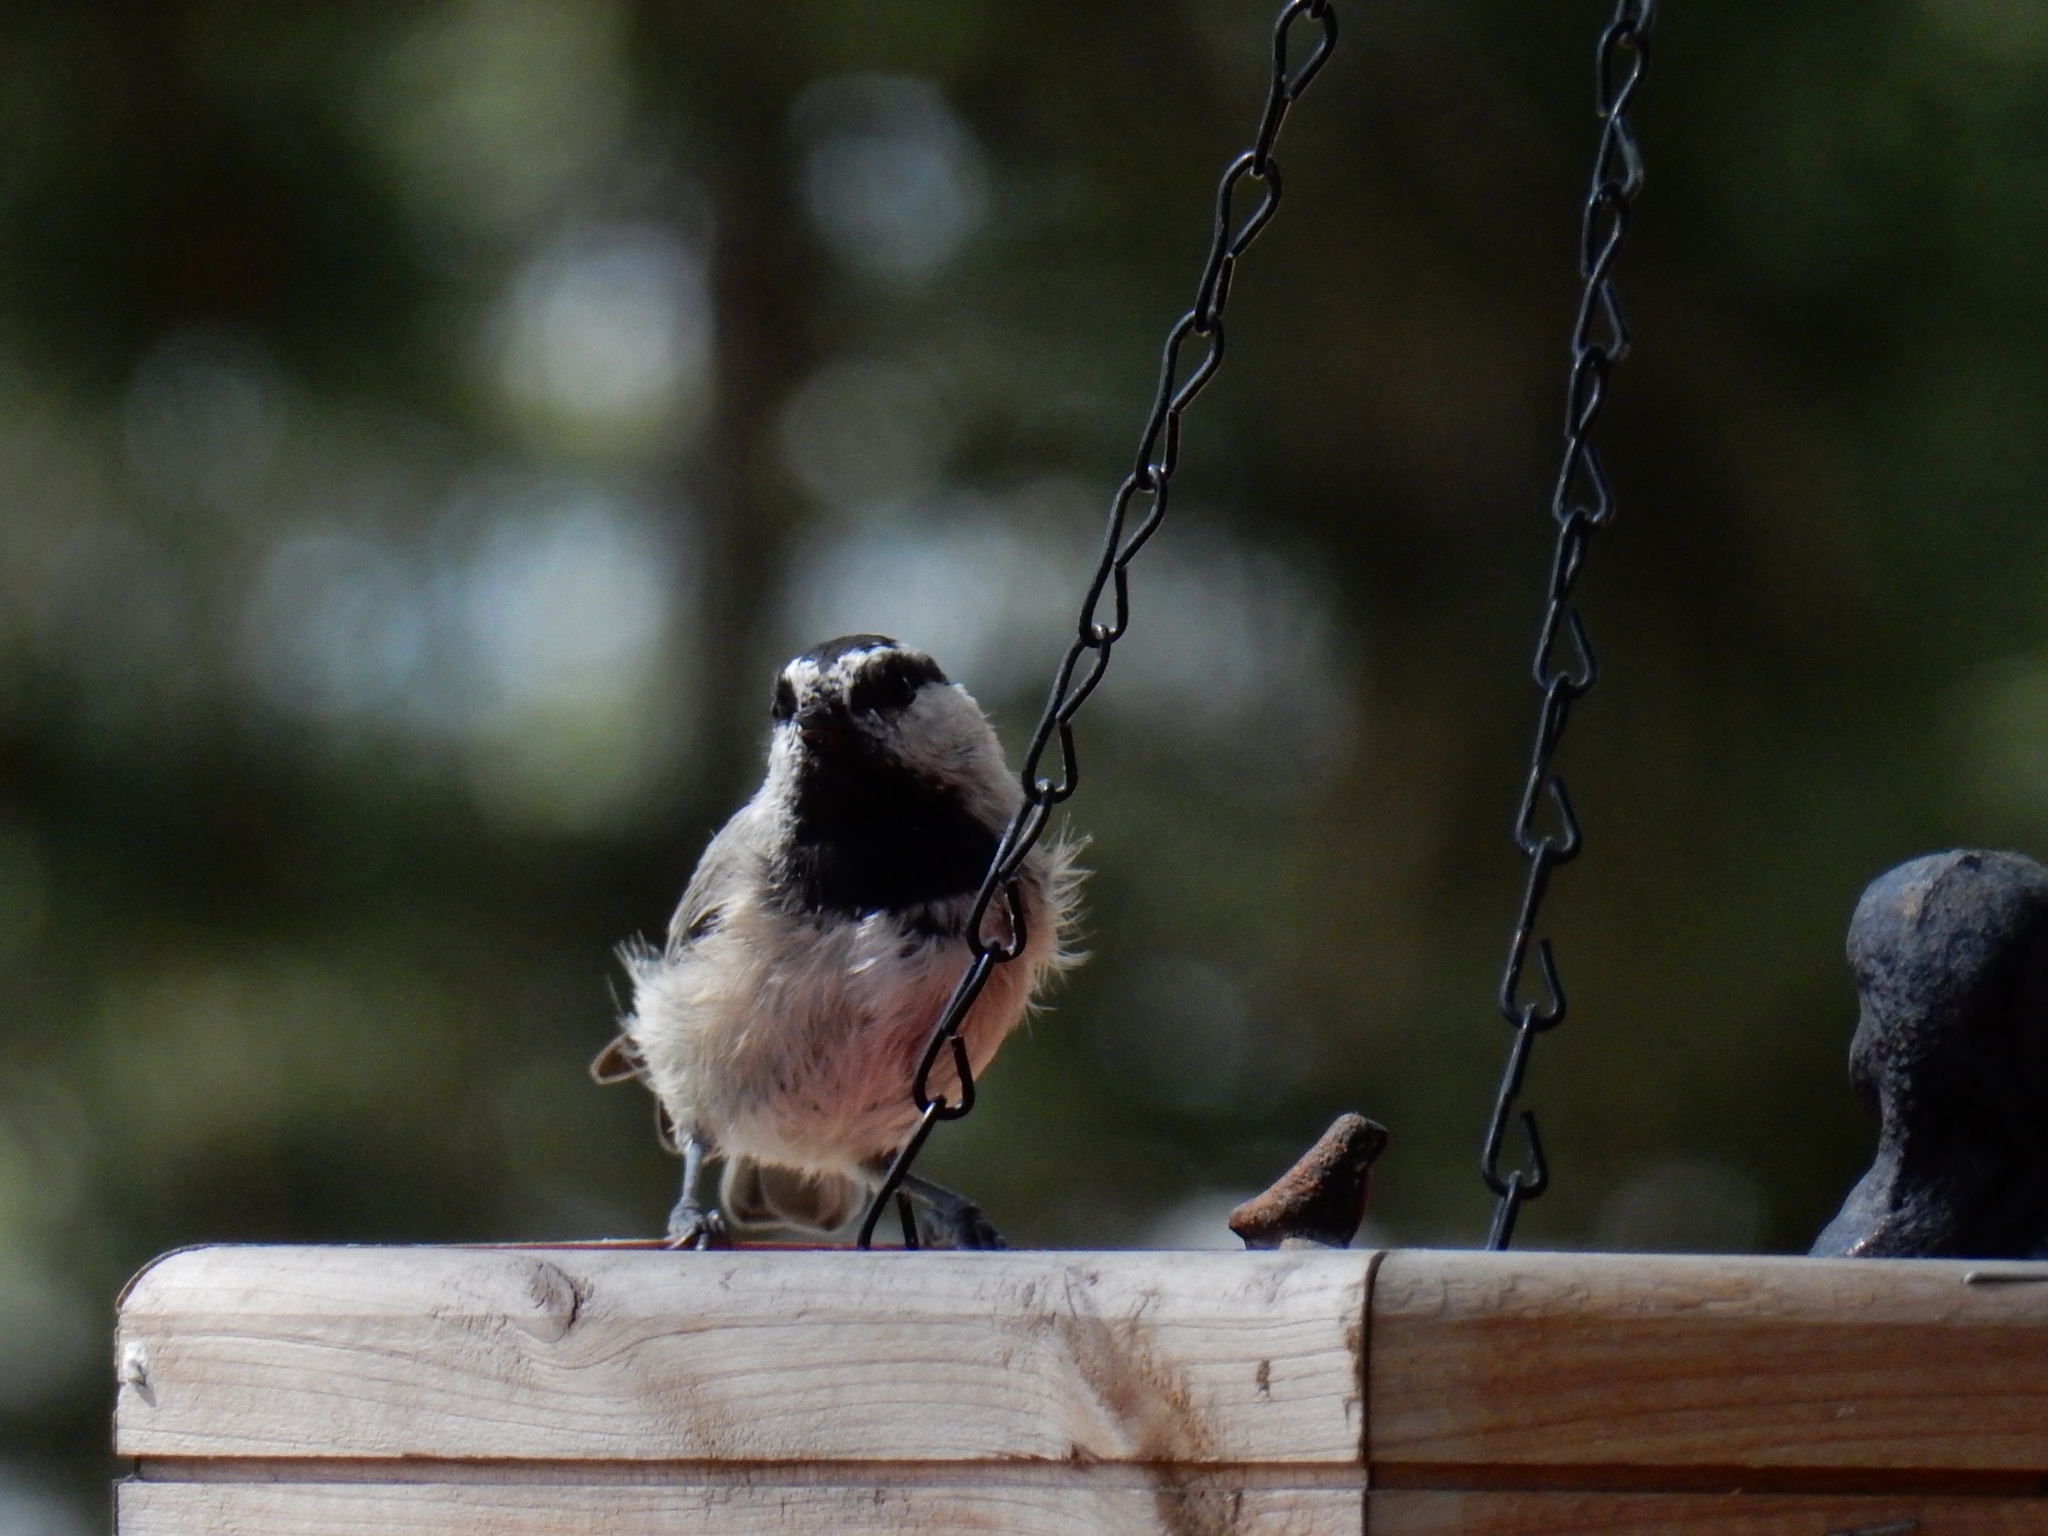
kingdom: Animalia
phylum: Chordata
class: Aves
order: Passeriformes
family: Paridae
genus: Poecile
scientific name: Poecile gambeli
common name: Mountain chickadee
